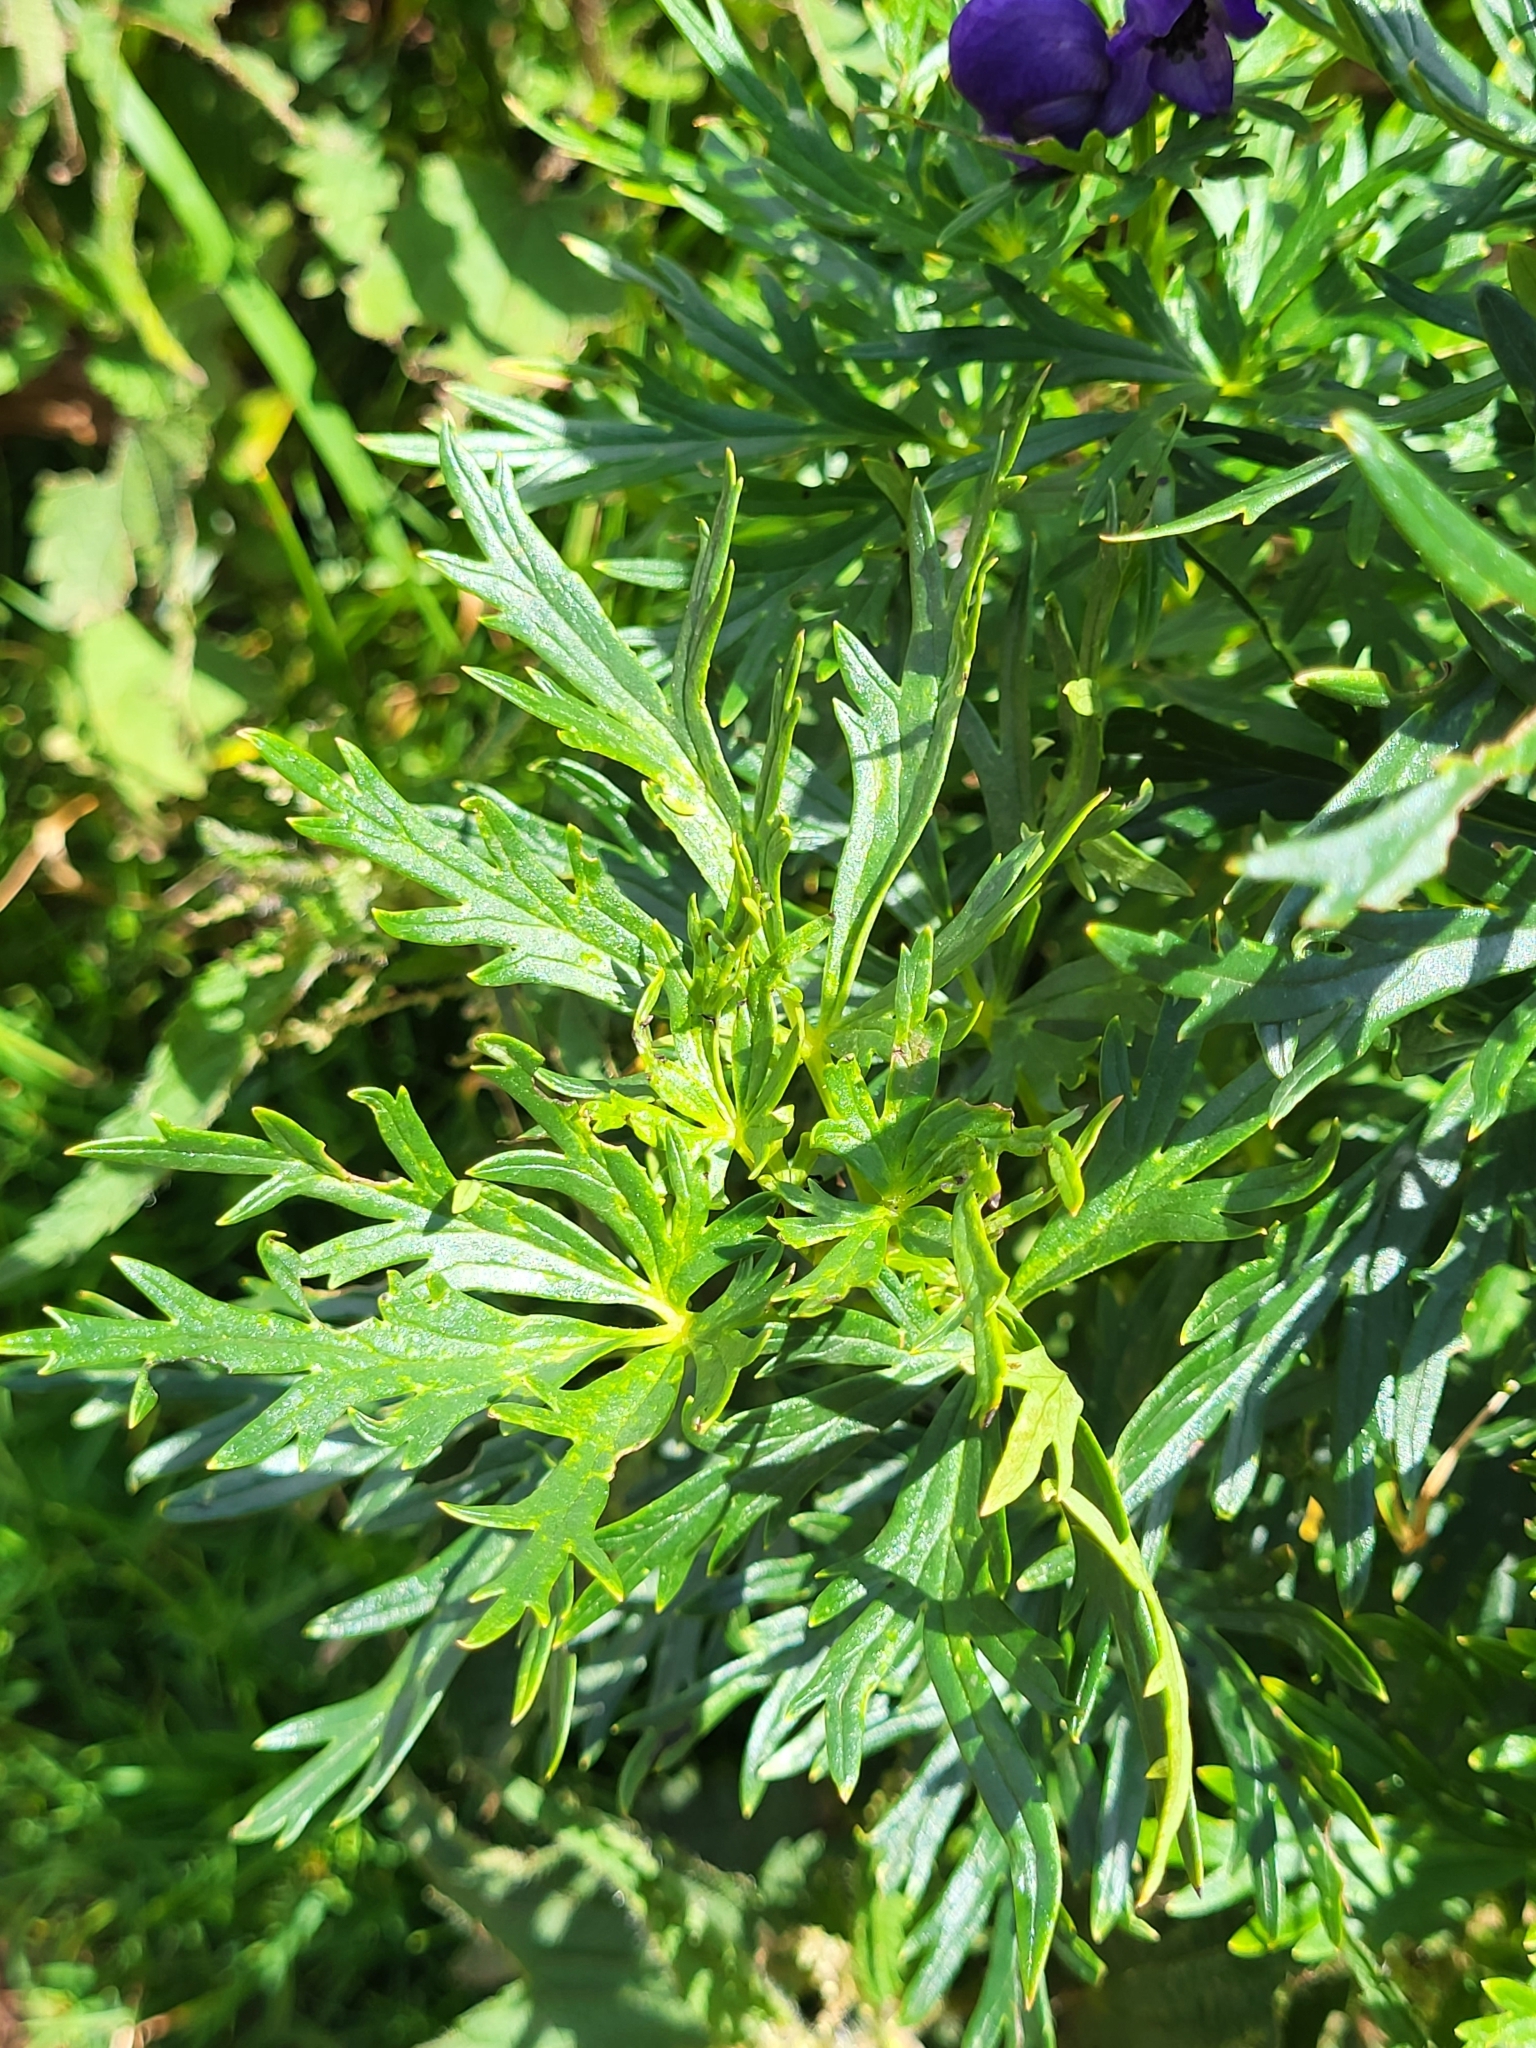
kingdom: Plantae
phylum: Tracheophyta
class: Magnoliopsida
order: Ranunculales
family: Ranunculaceae
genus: Aconitum
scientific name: Aconitum tauricum
